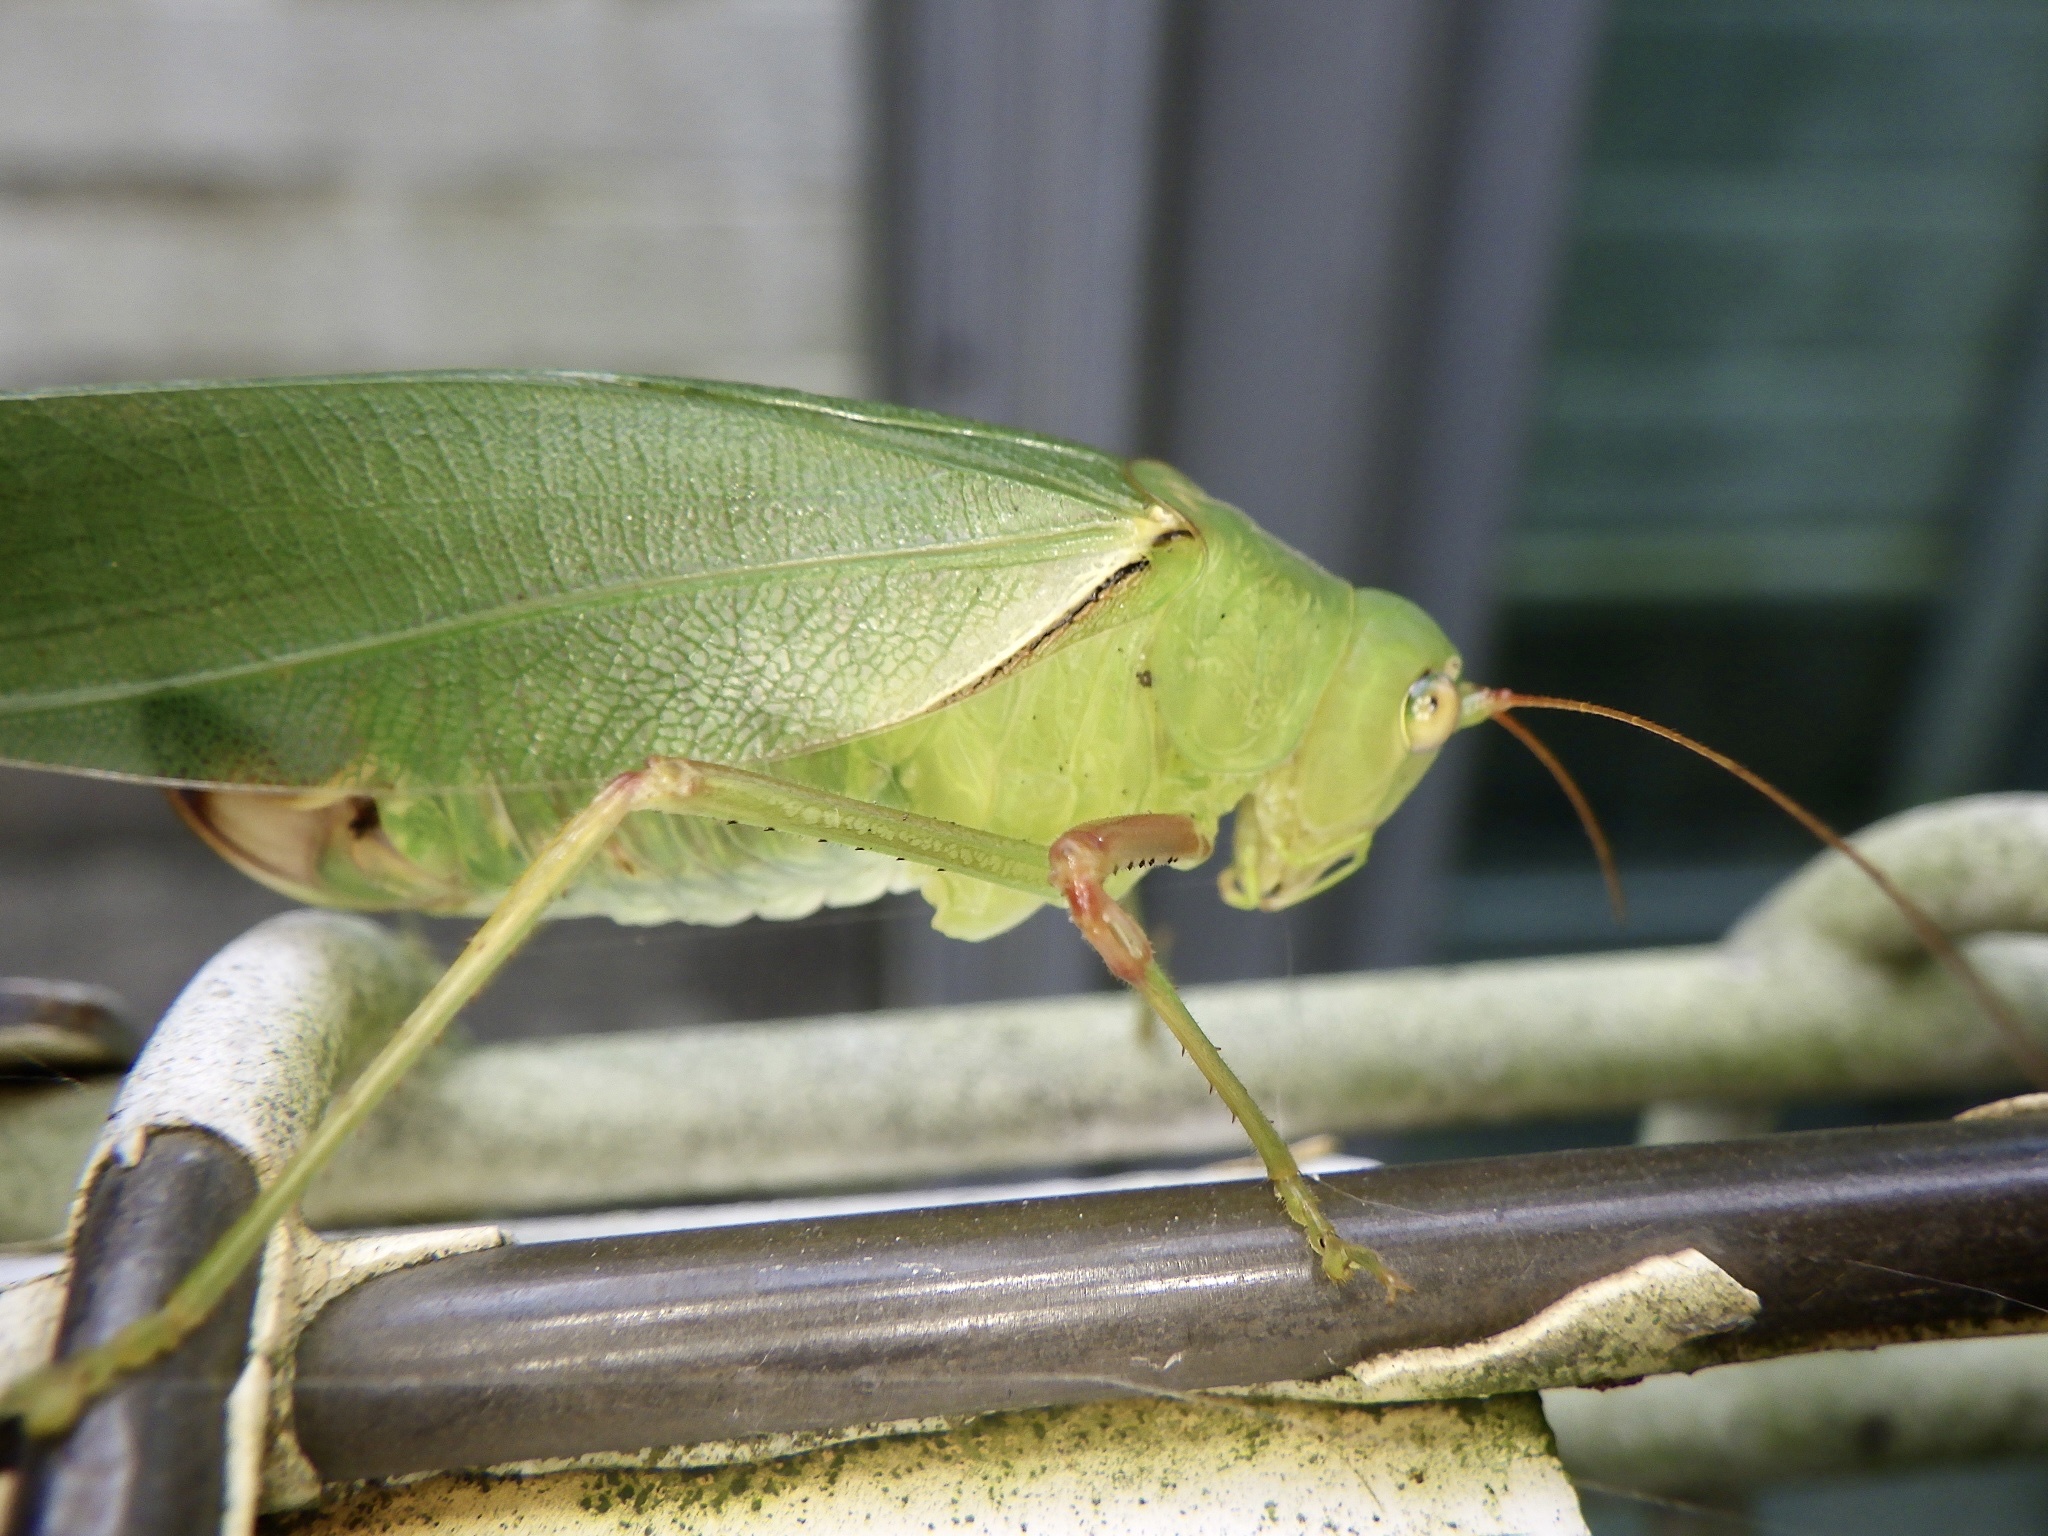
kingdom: Animalia
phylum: Arthropoda
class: Insecta
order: Orthoptera
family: Tettigoniidae
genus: Sinochlora
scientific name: Sinochlora longifissa
